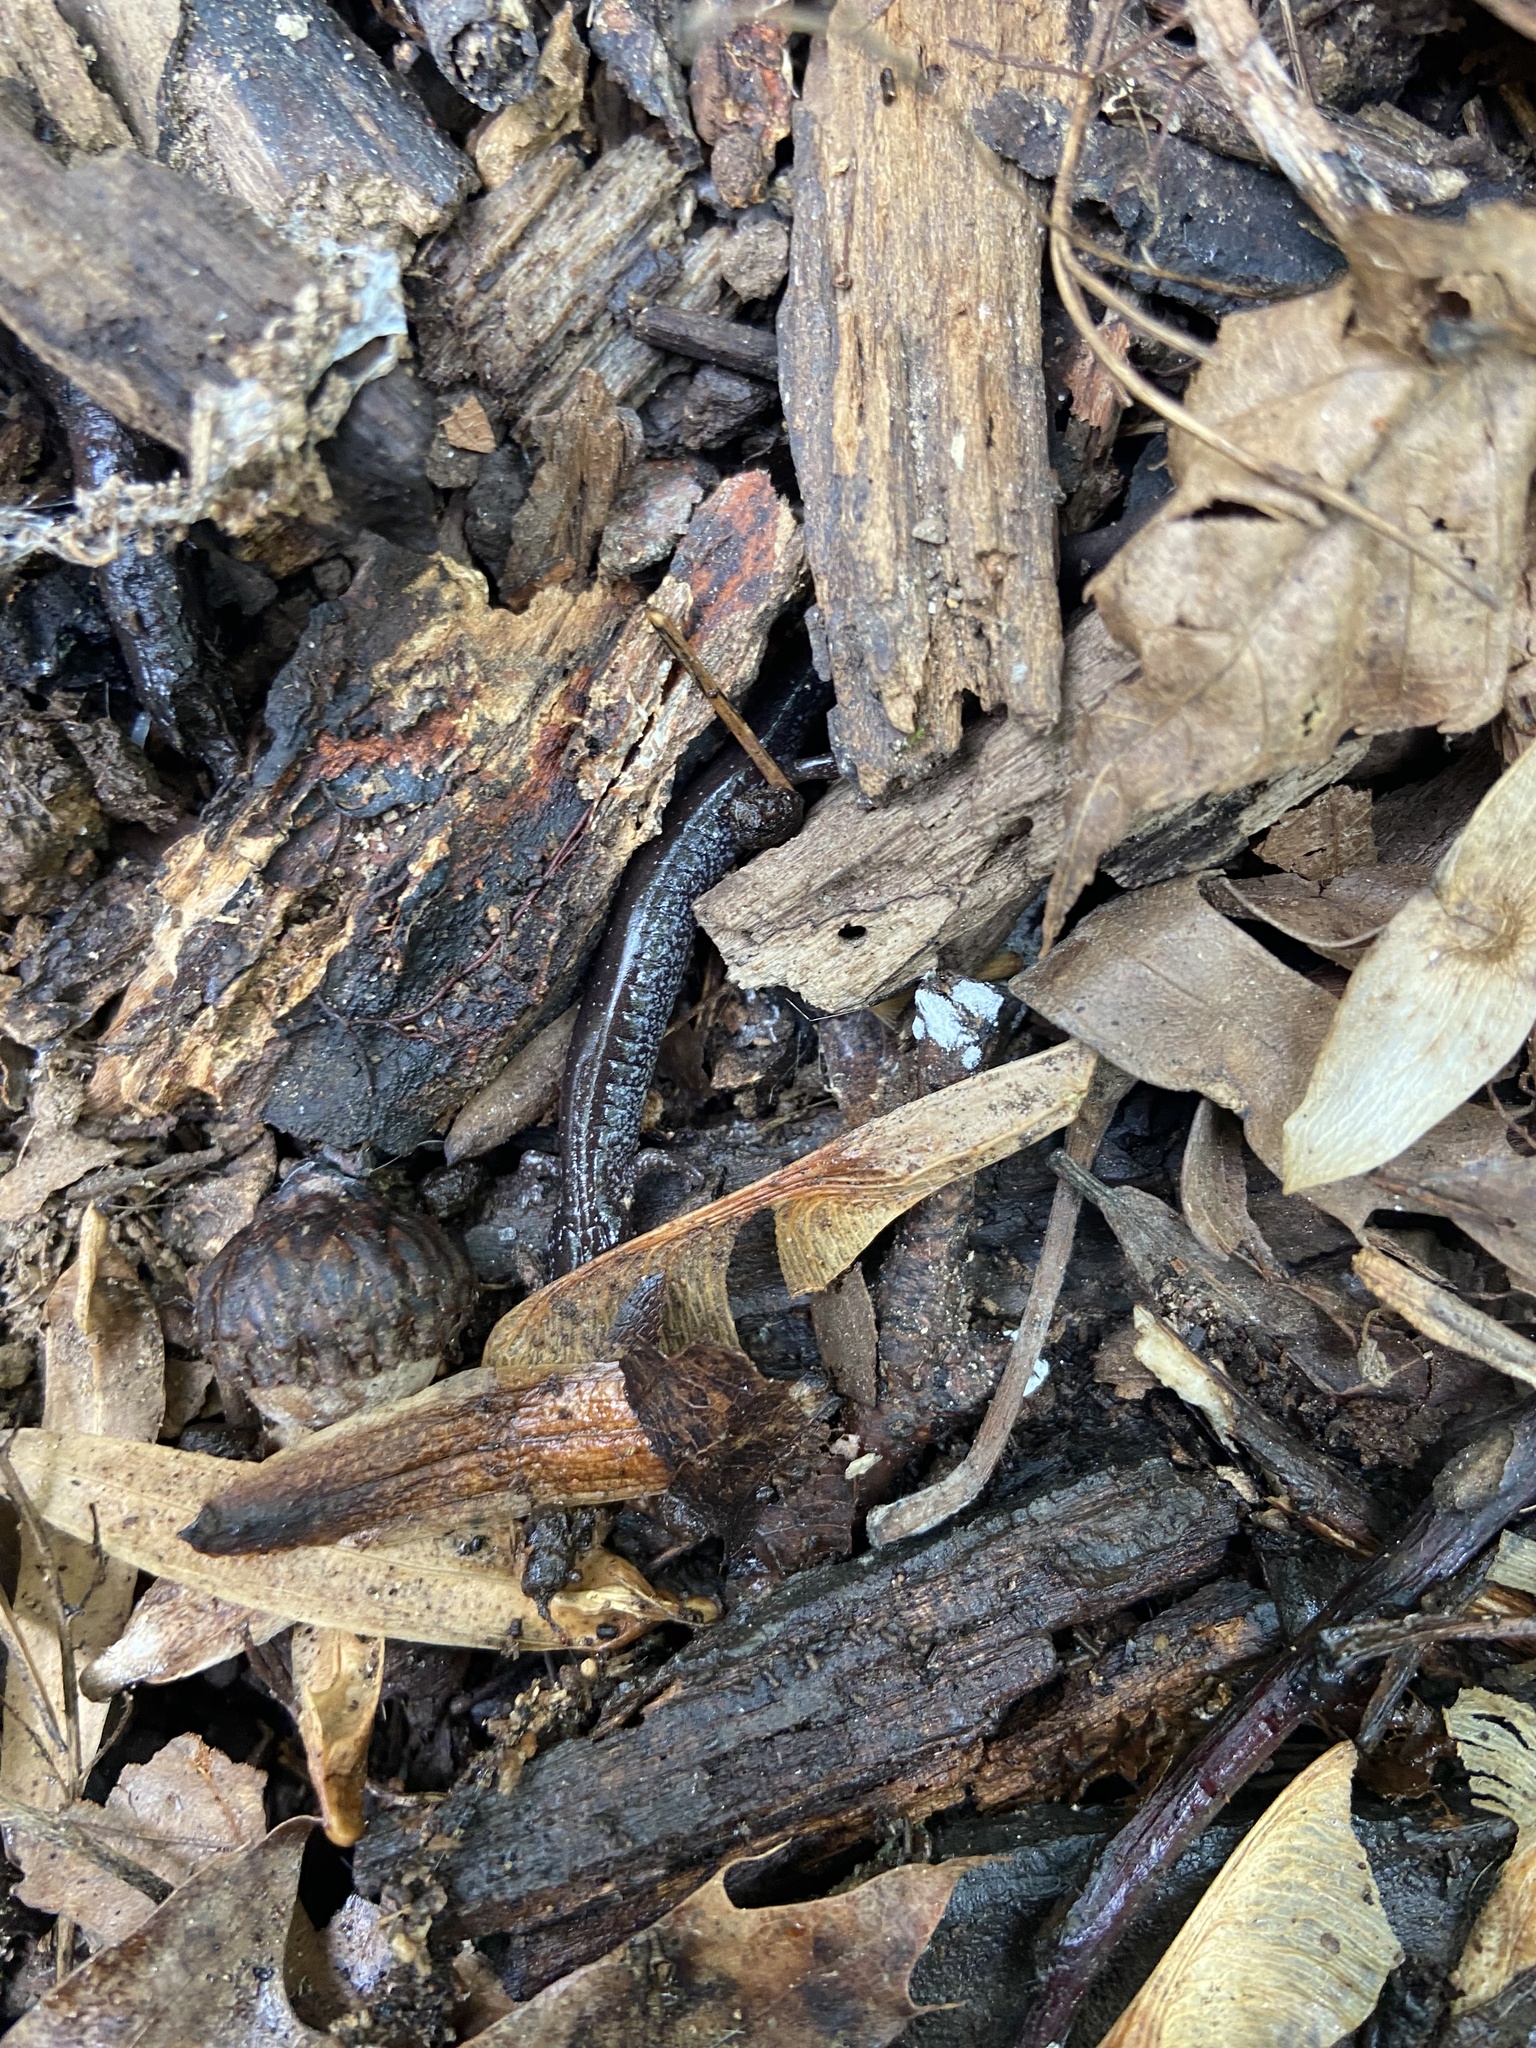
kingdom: Animalia
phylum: Chordata
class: Amphibia
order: Caudata
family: Plethodontidae
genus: Plethodon
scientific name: Plethodon cinereus
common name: Redback salamander
